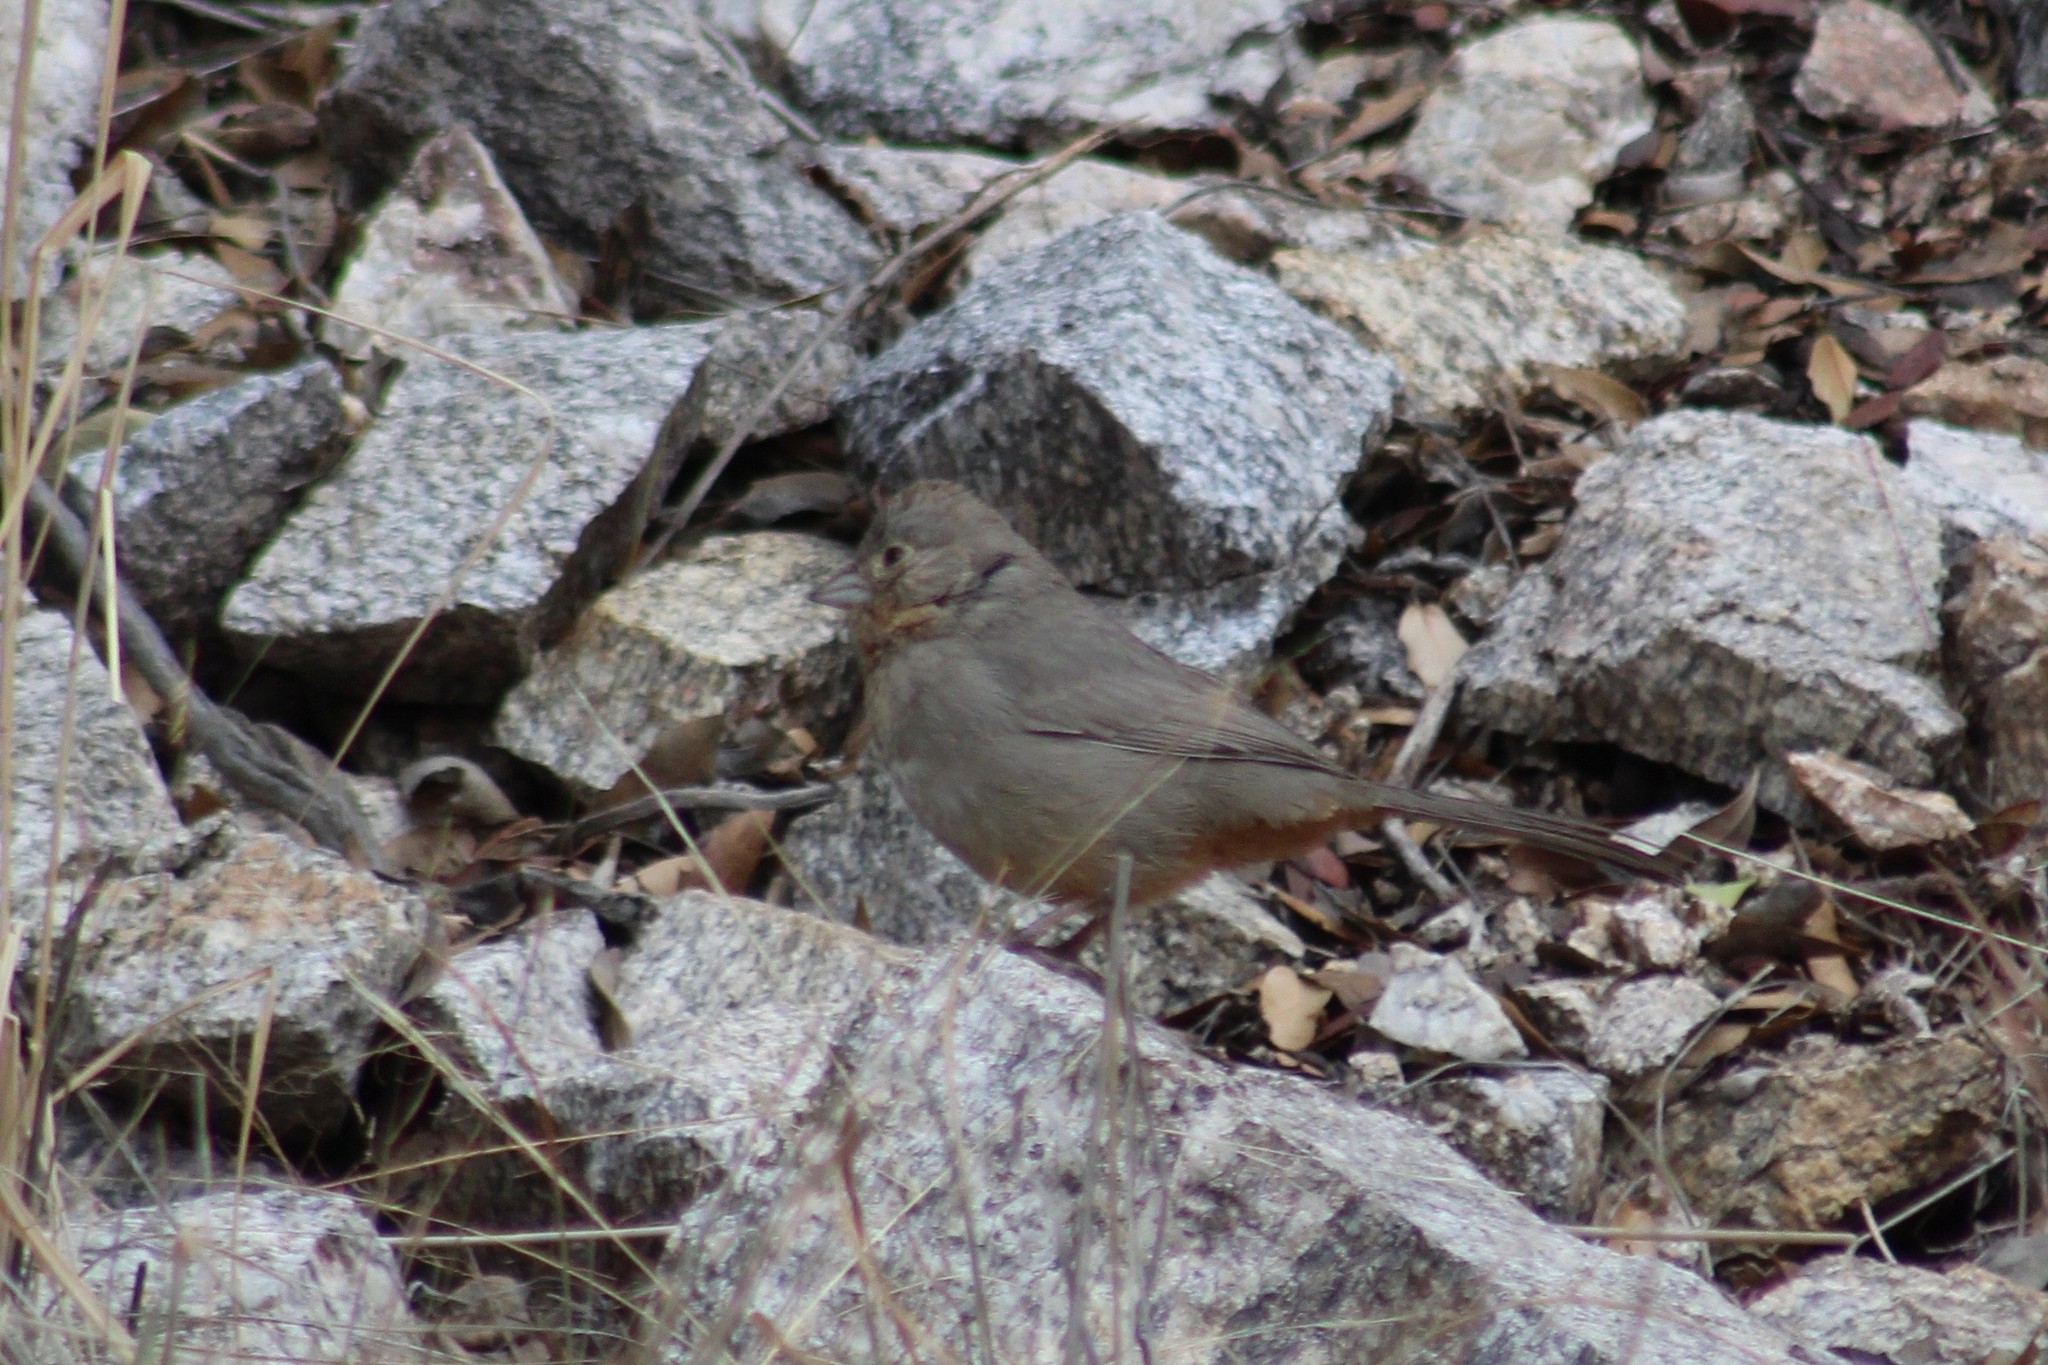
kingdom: Animalia
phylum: Chordata
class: Aves
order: Passeriformes
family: Passerellidae
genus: Melozone
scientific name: Melozone fusca
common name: Canyon towhee
